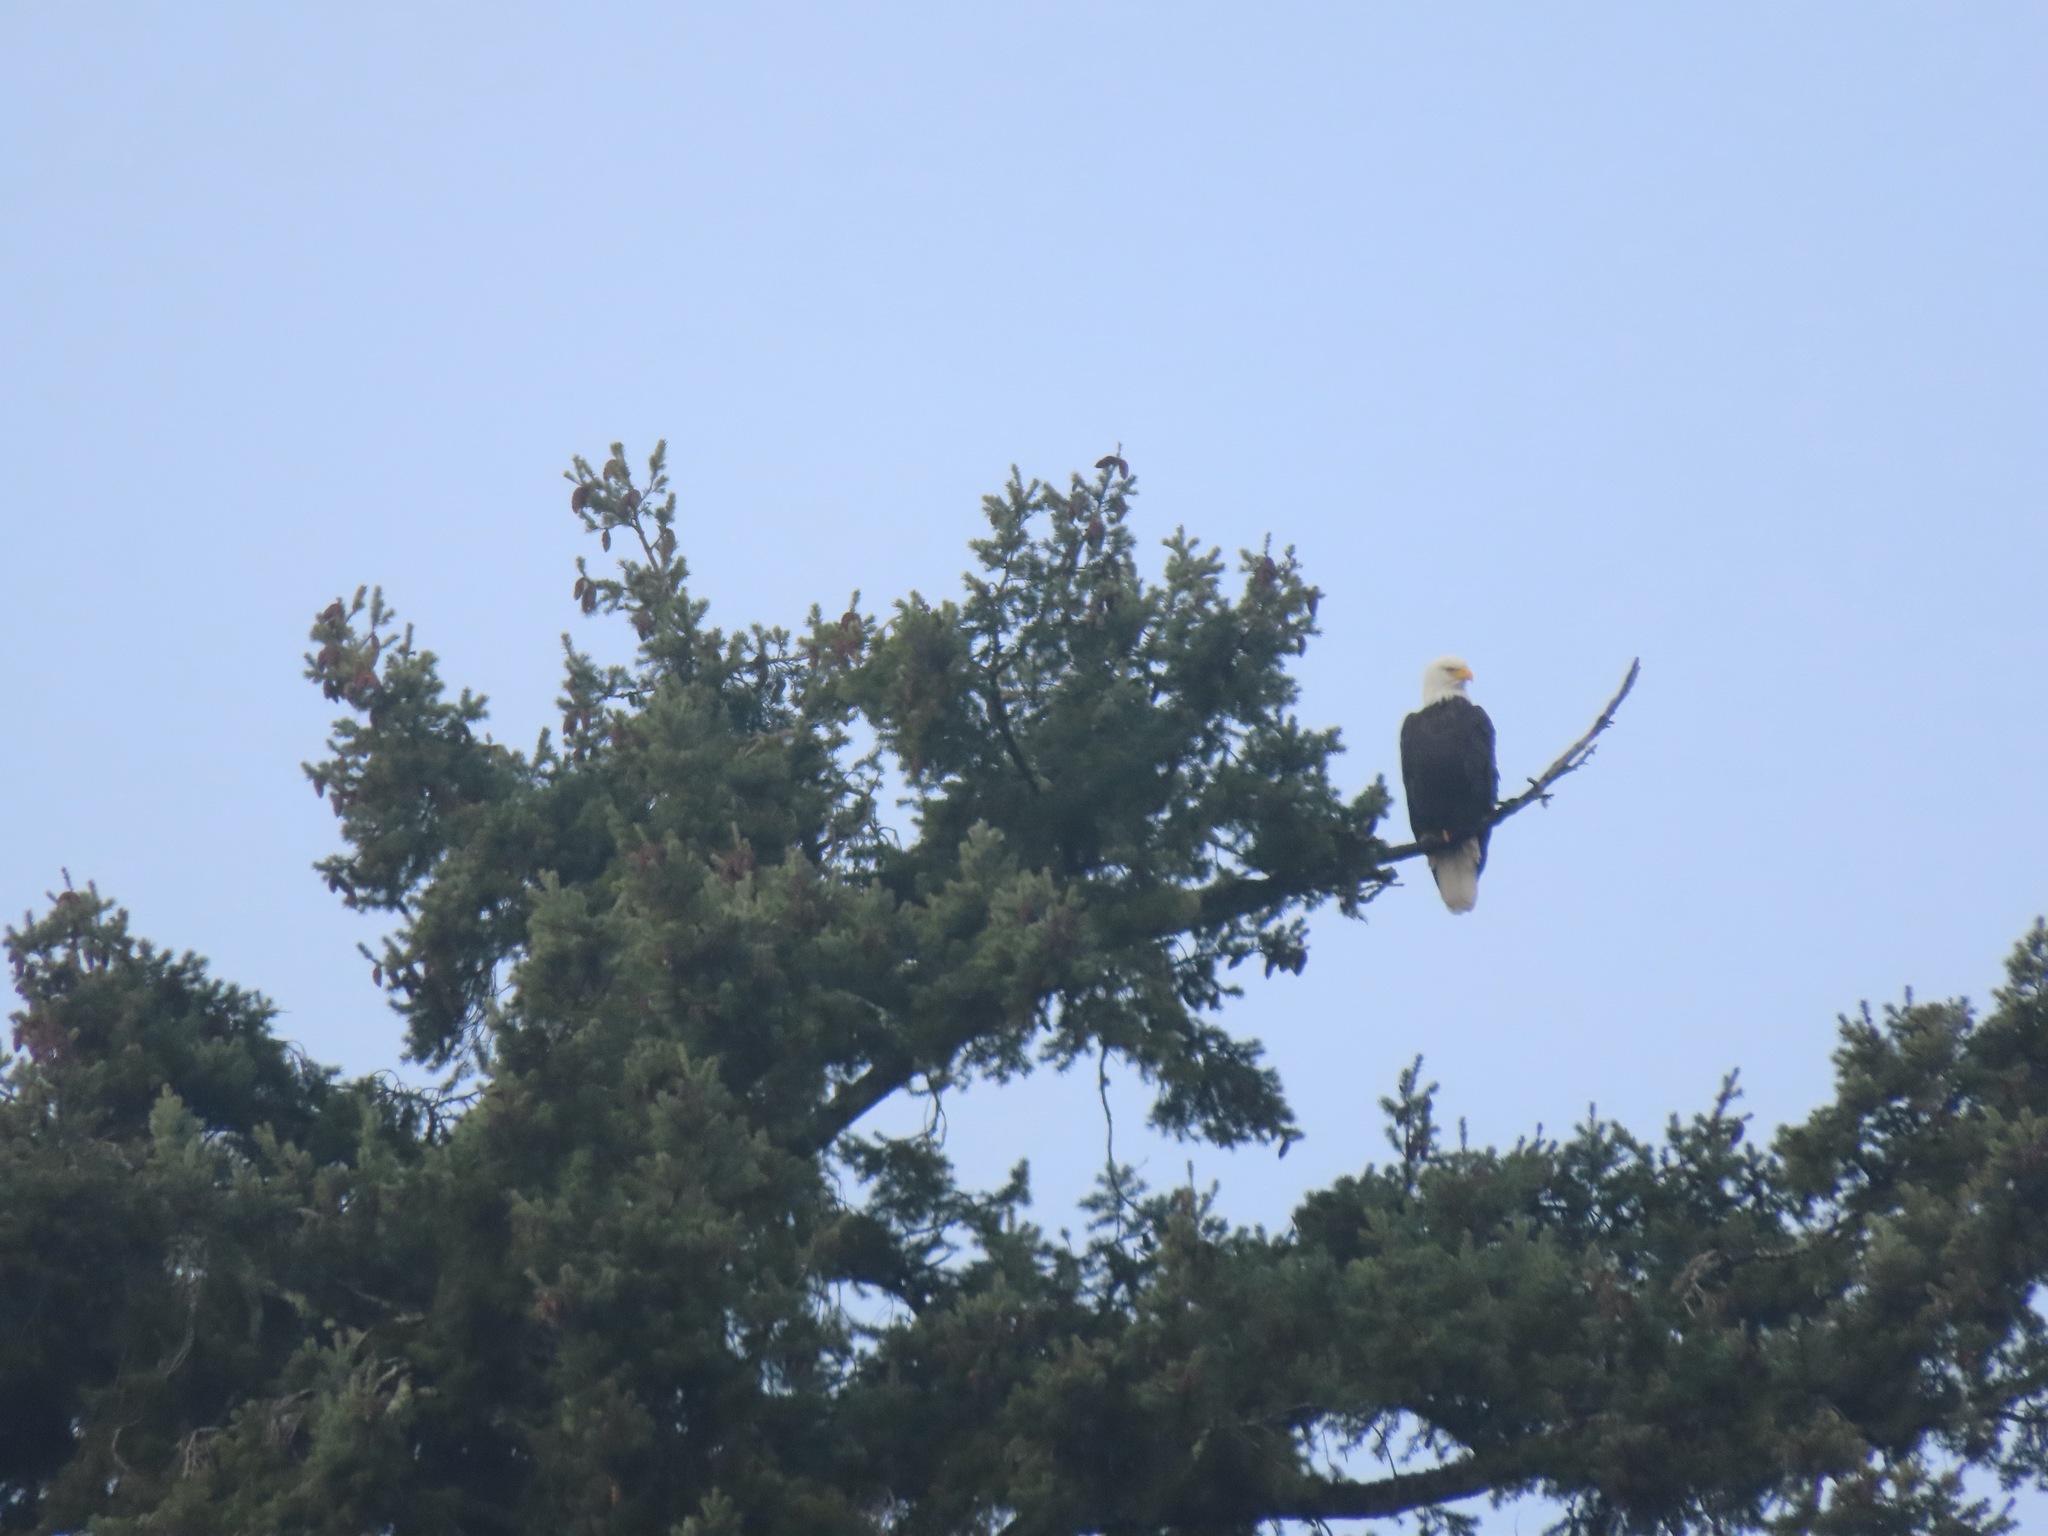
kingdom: Animalia
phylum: Chordata
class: Aves
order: Accipitriformes
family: Accipitridae
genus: Haliaeetus
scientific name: Haliaeetus leucocephalus
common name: Bald eagle
